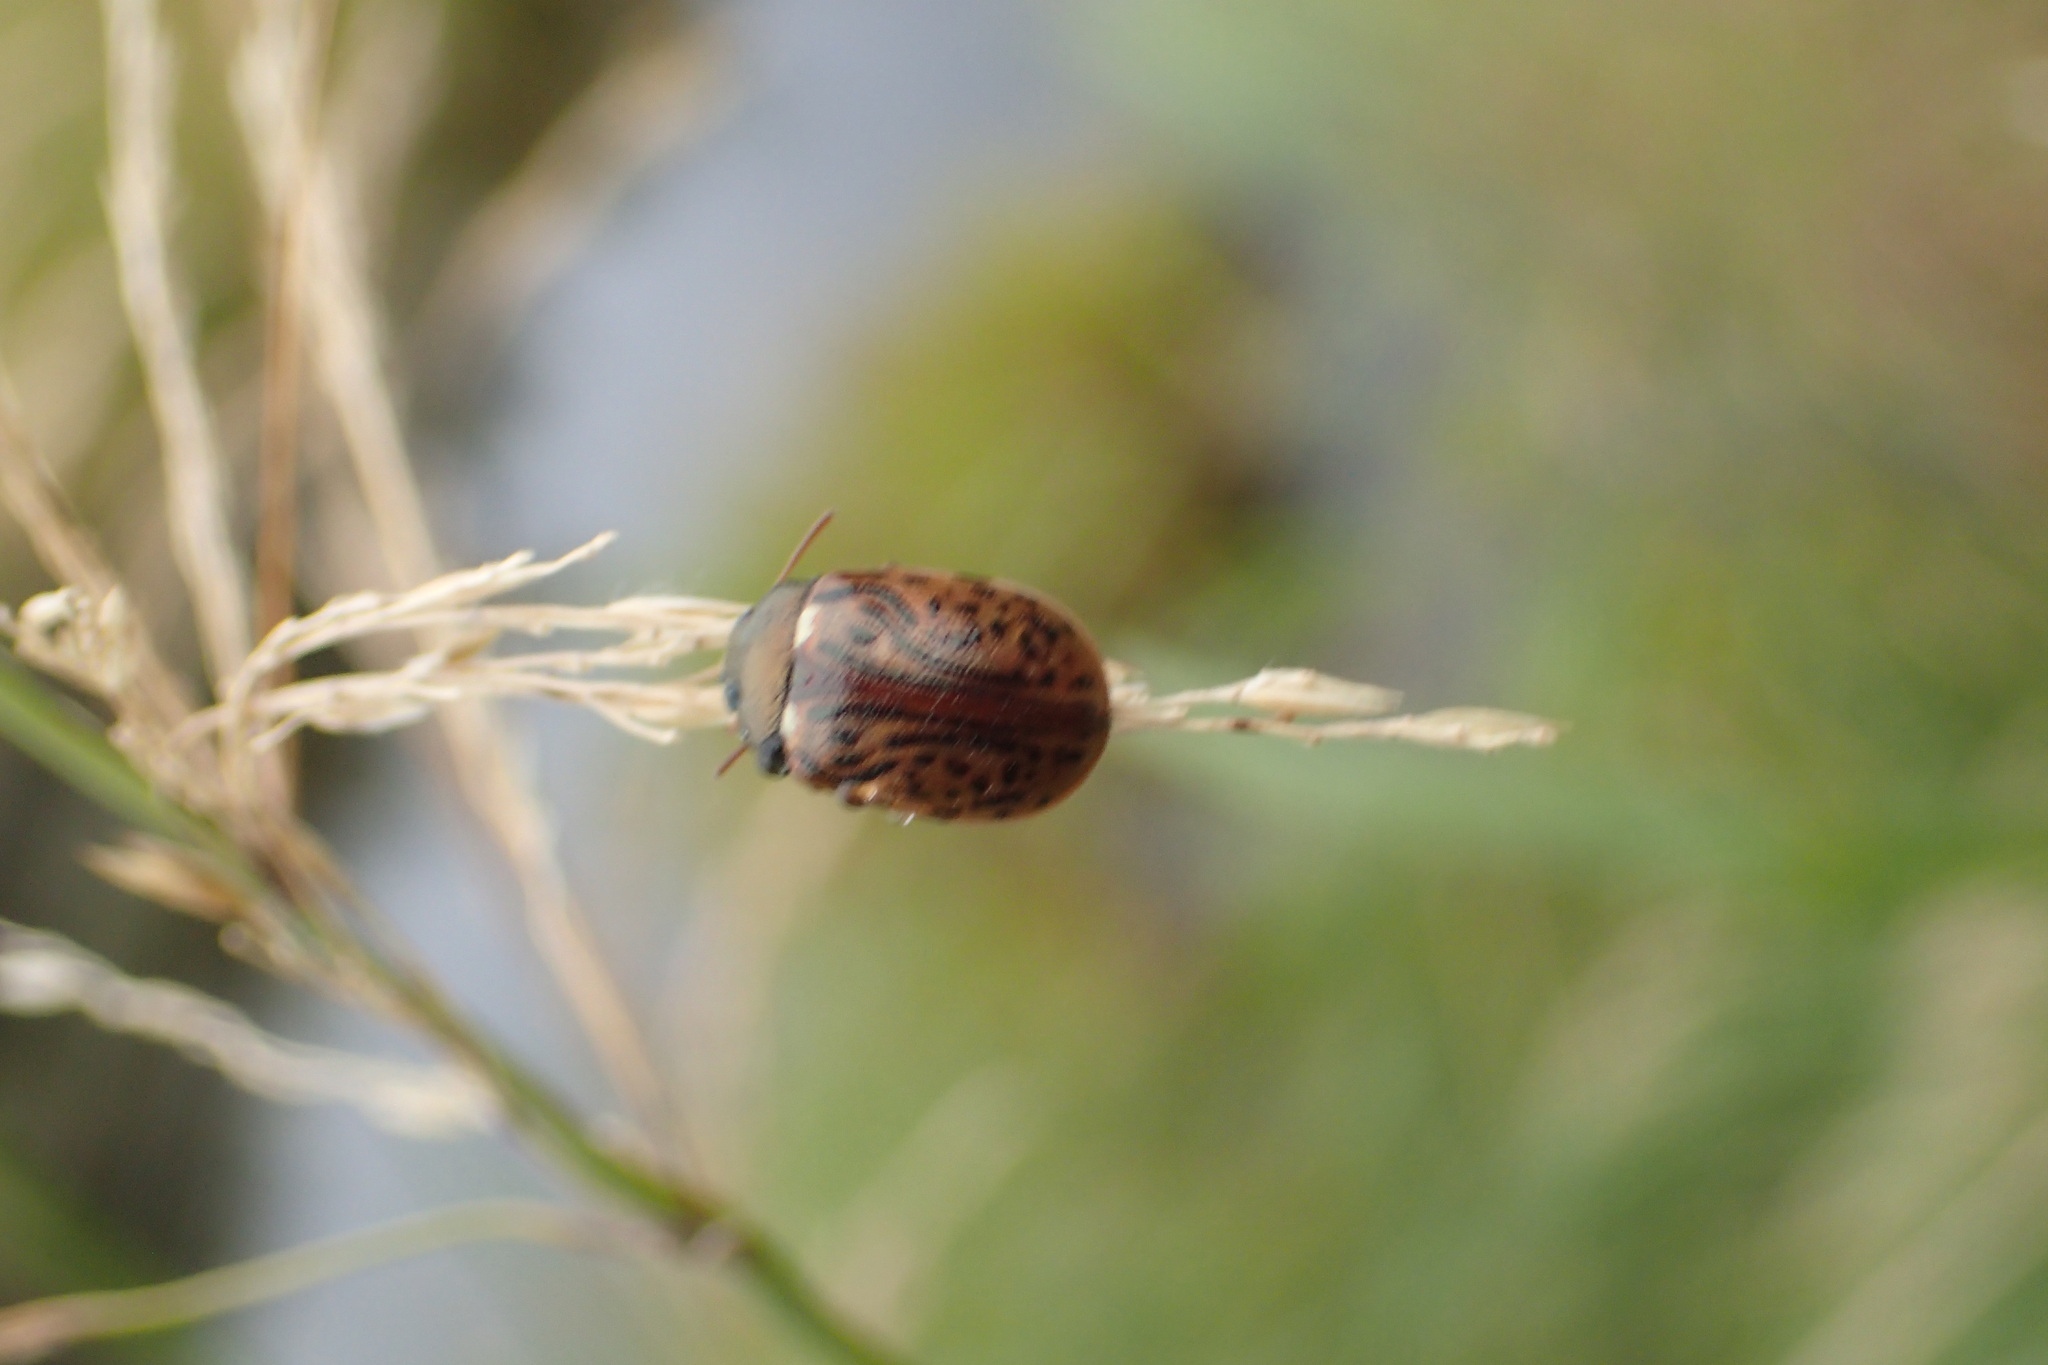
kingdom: Animalia
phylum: Arthropoda
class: Insecta
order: Coleoptera
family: Chrysomelidae
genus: Calligrapha
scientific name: Calligrapha alni
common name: Russet alder leaf beetle
